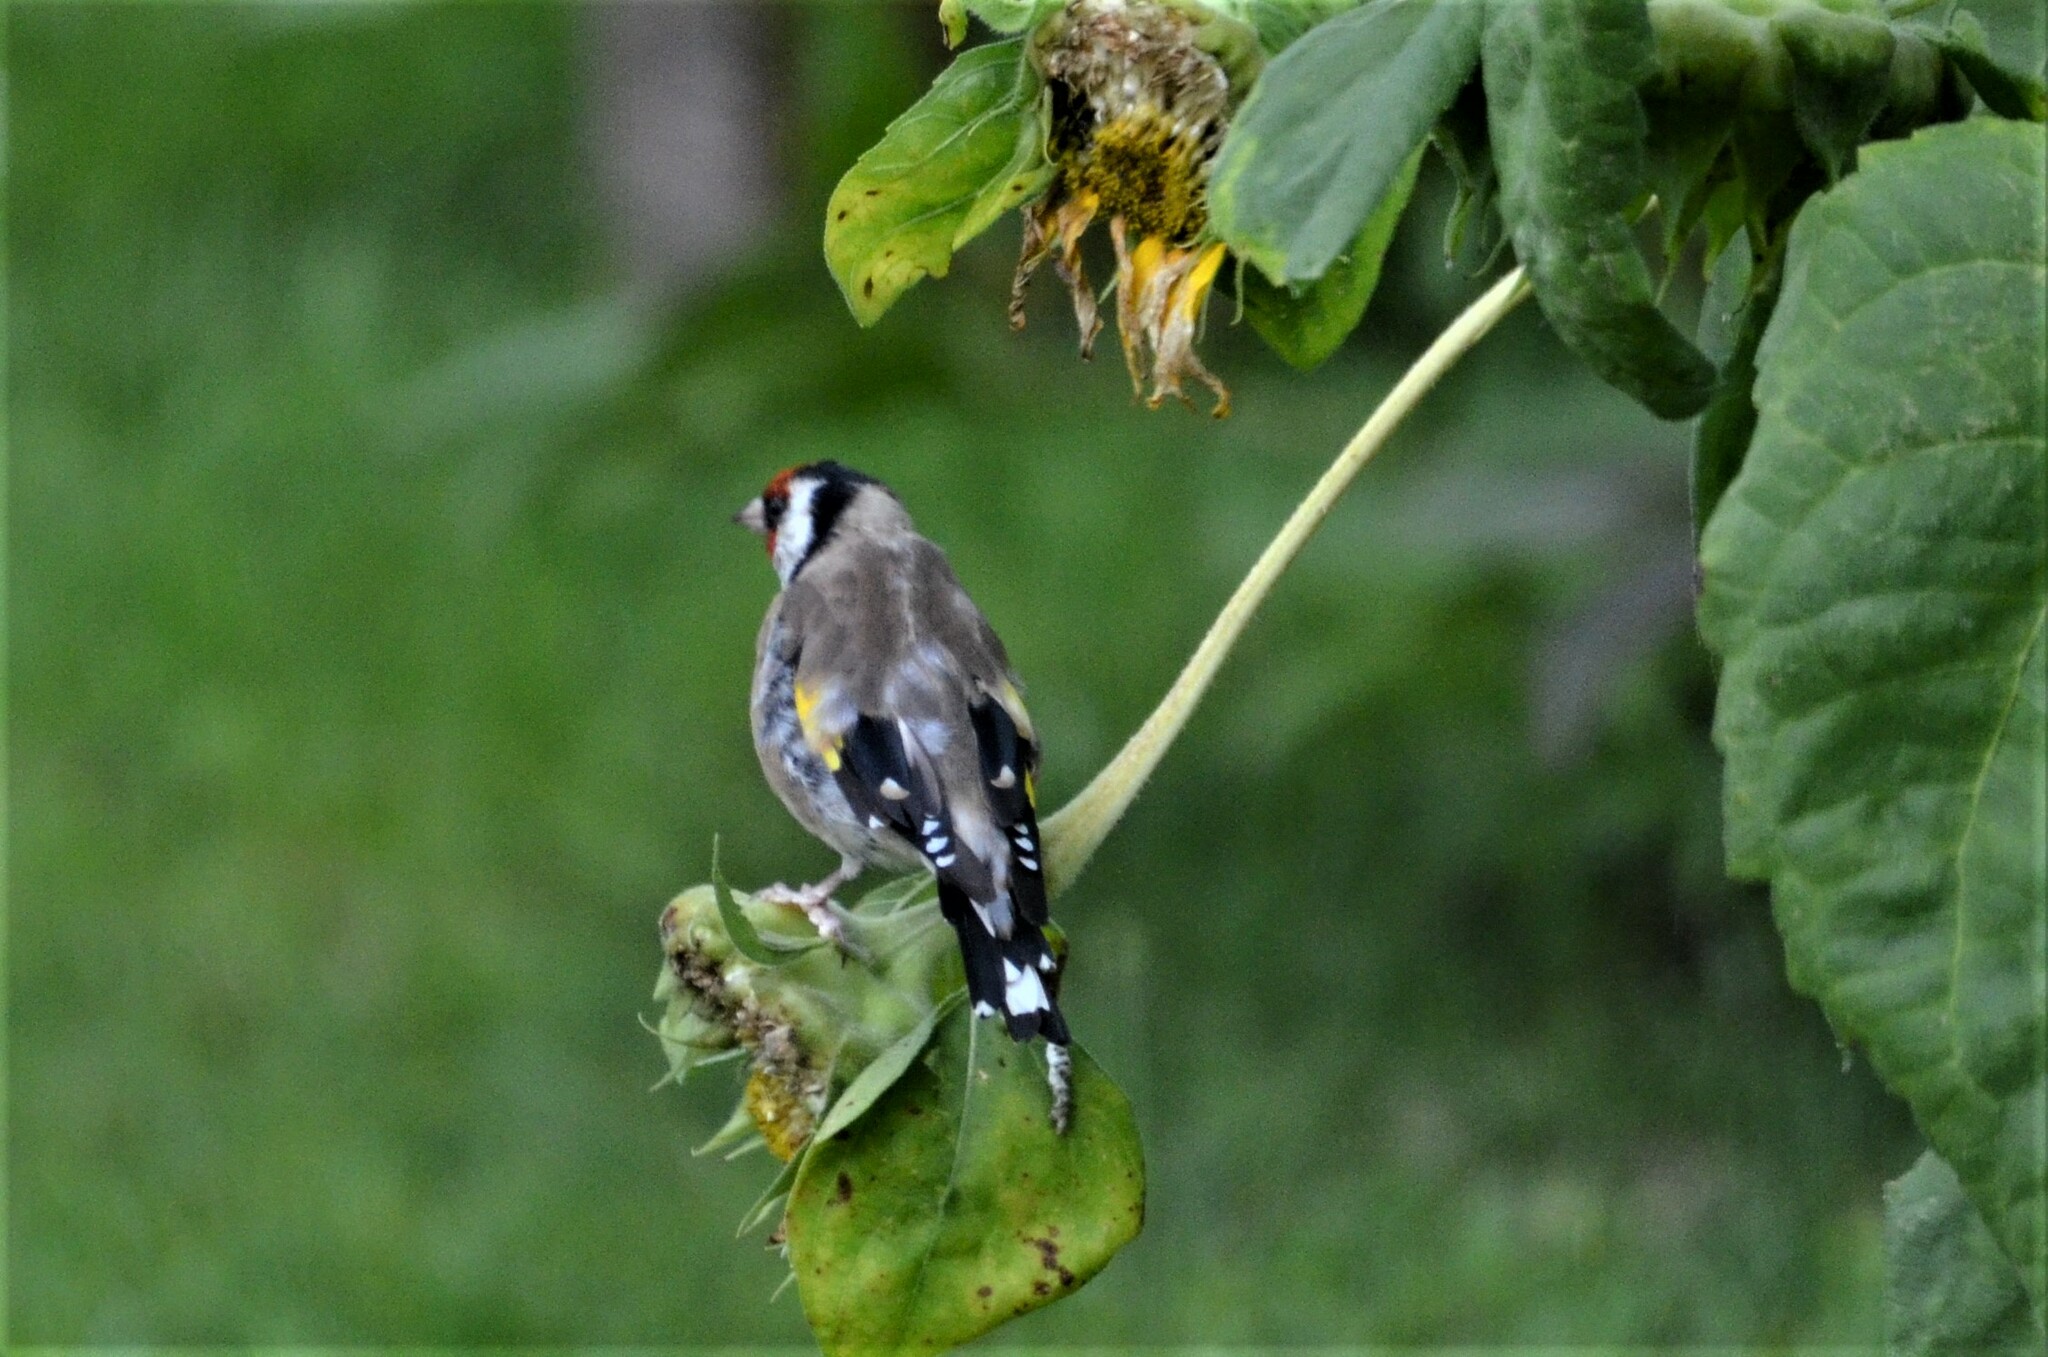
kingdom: Animalia
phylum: Chordata
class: Aves
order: Passeriformes
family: Fringillidae
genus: Carduelis
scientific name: Carduelis carduelis
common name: European goldfinch
